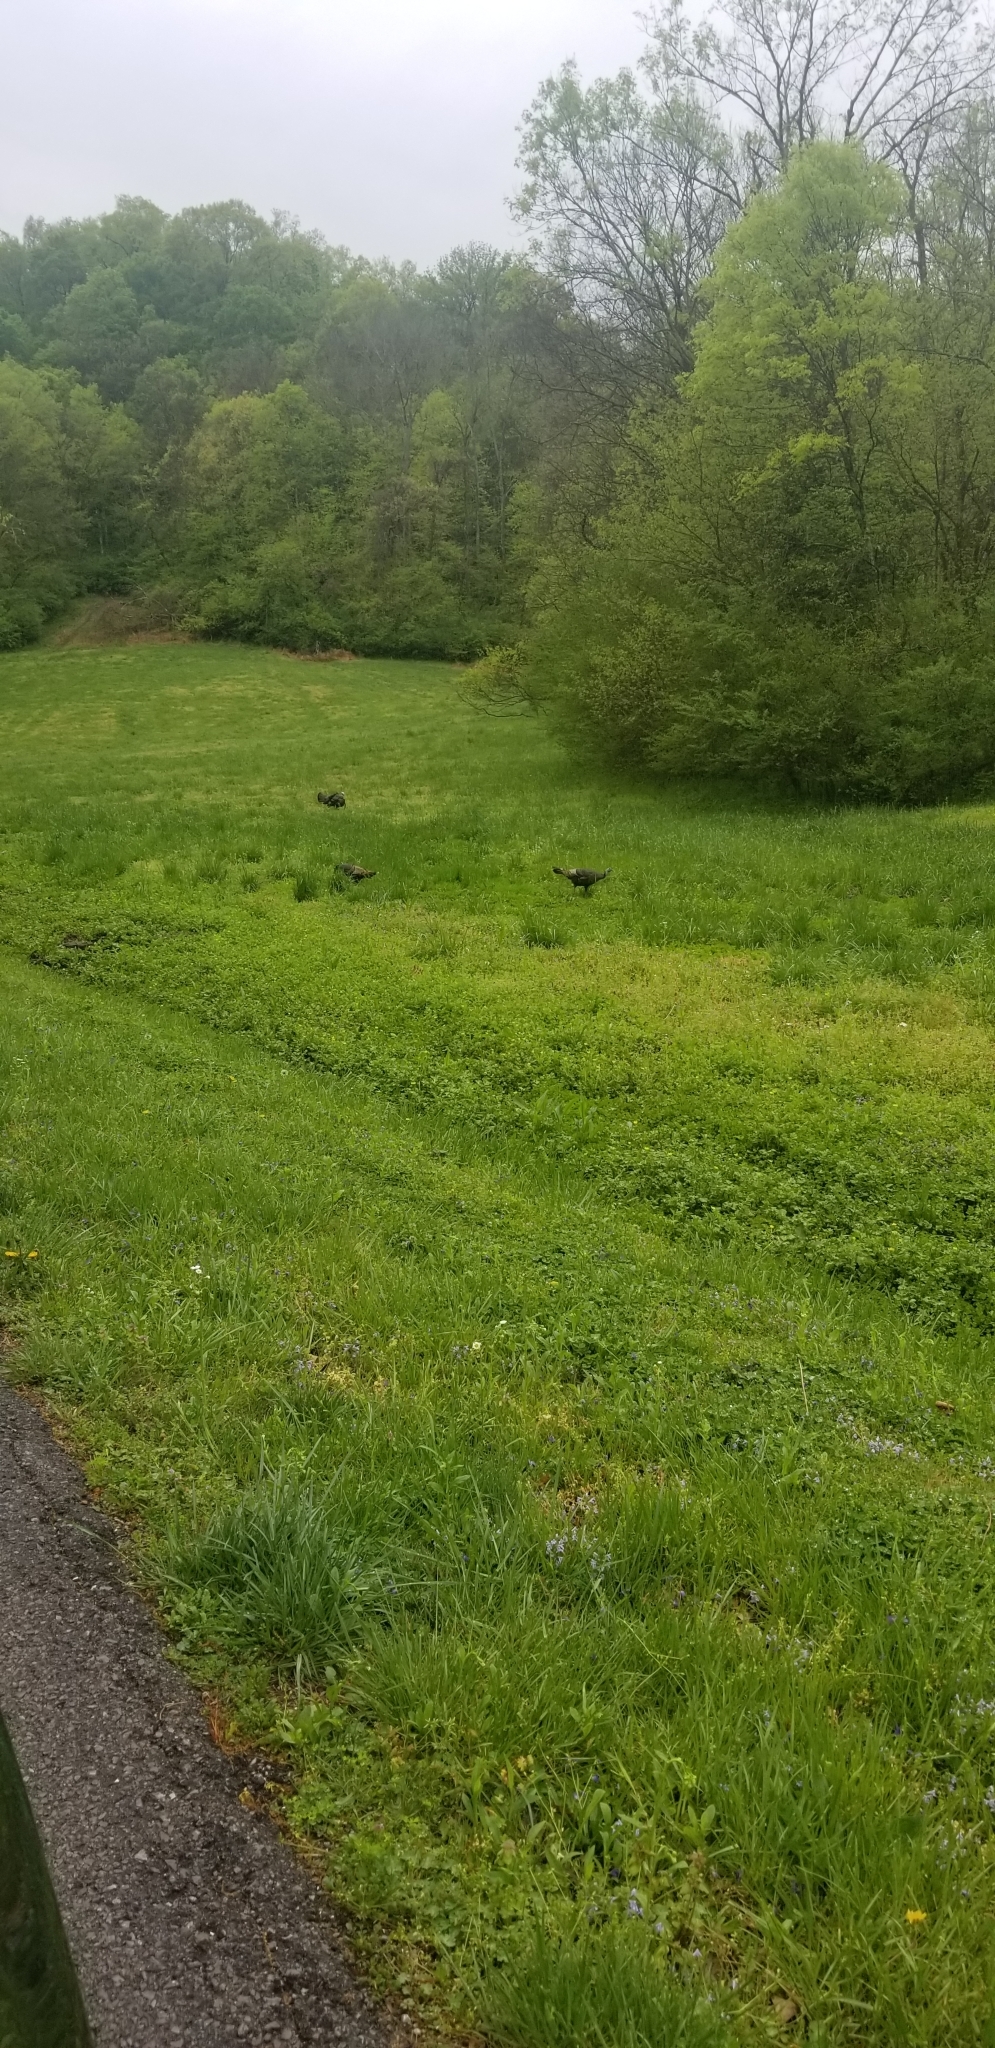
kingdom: Animalia
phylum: Chordata
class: Aves
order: Galliformes
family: Phasianidae
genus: Meleagris
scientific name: Meleagris gallopavo
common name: Wild turkey
